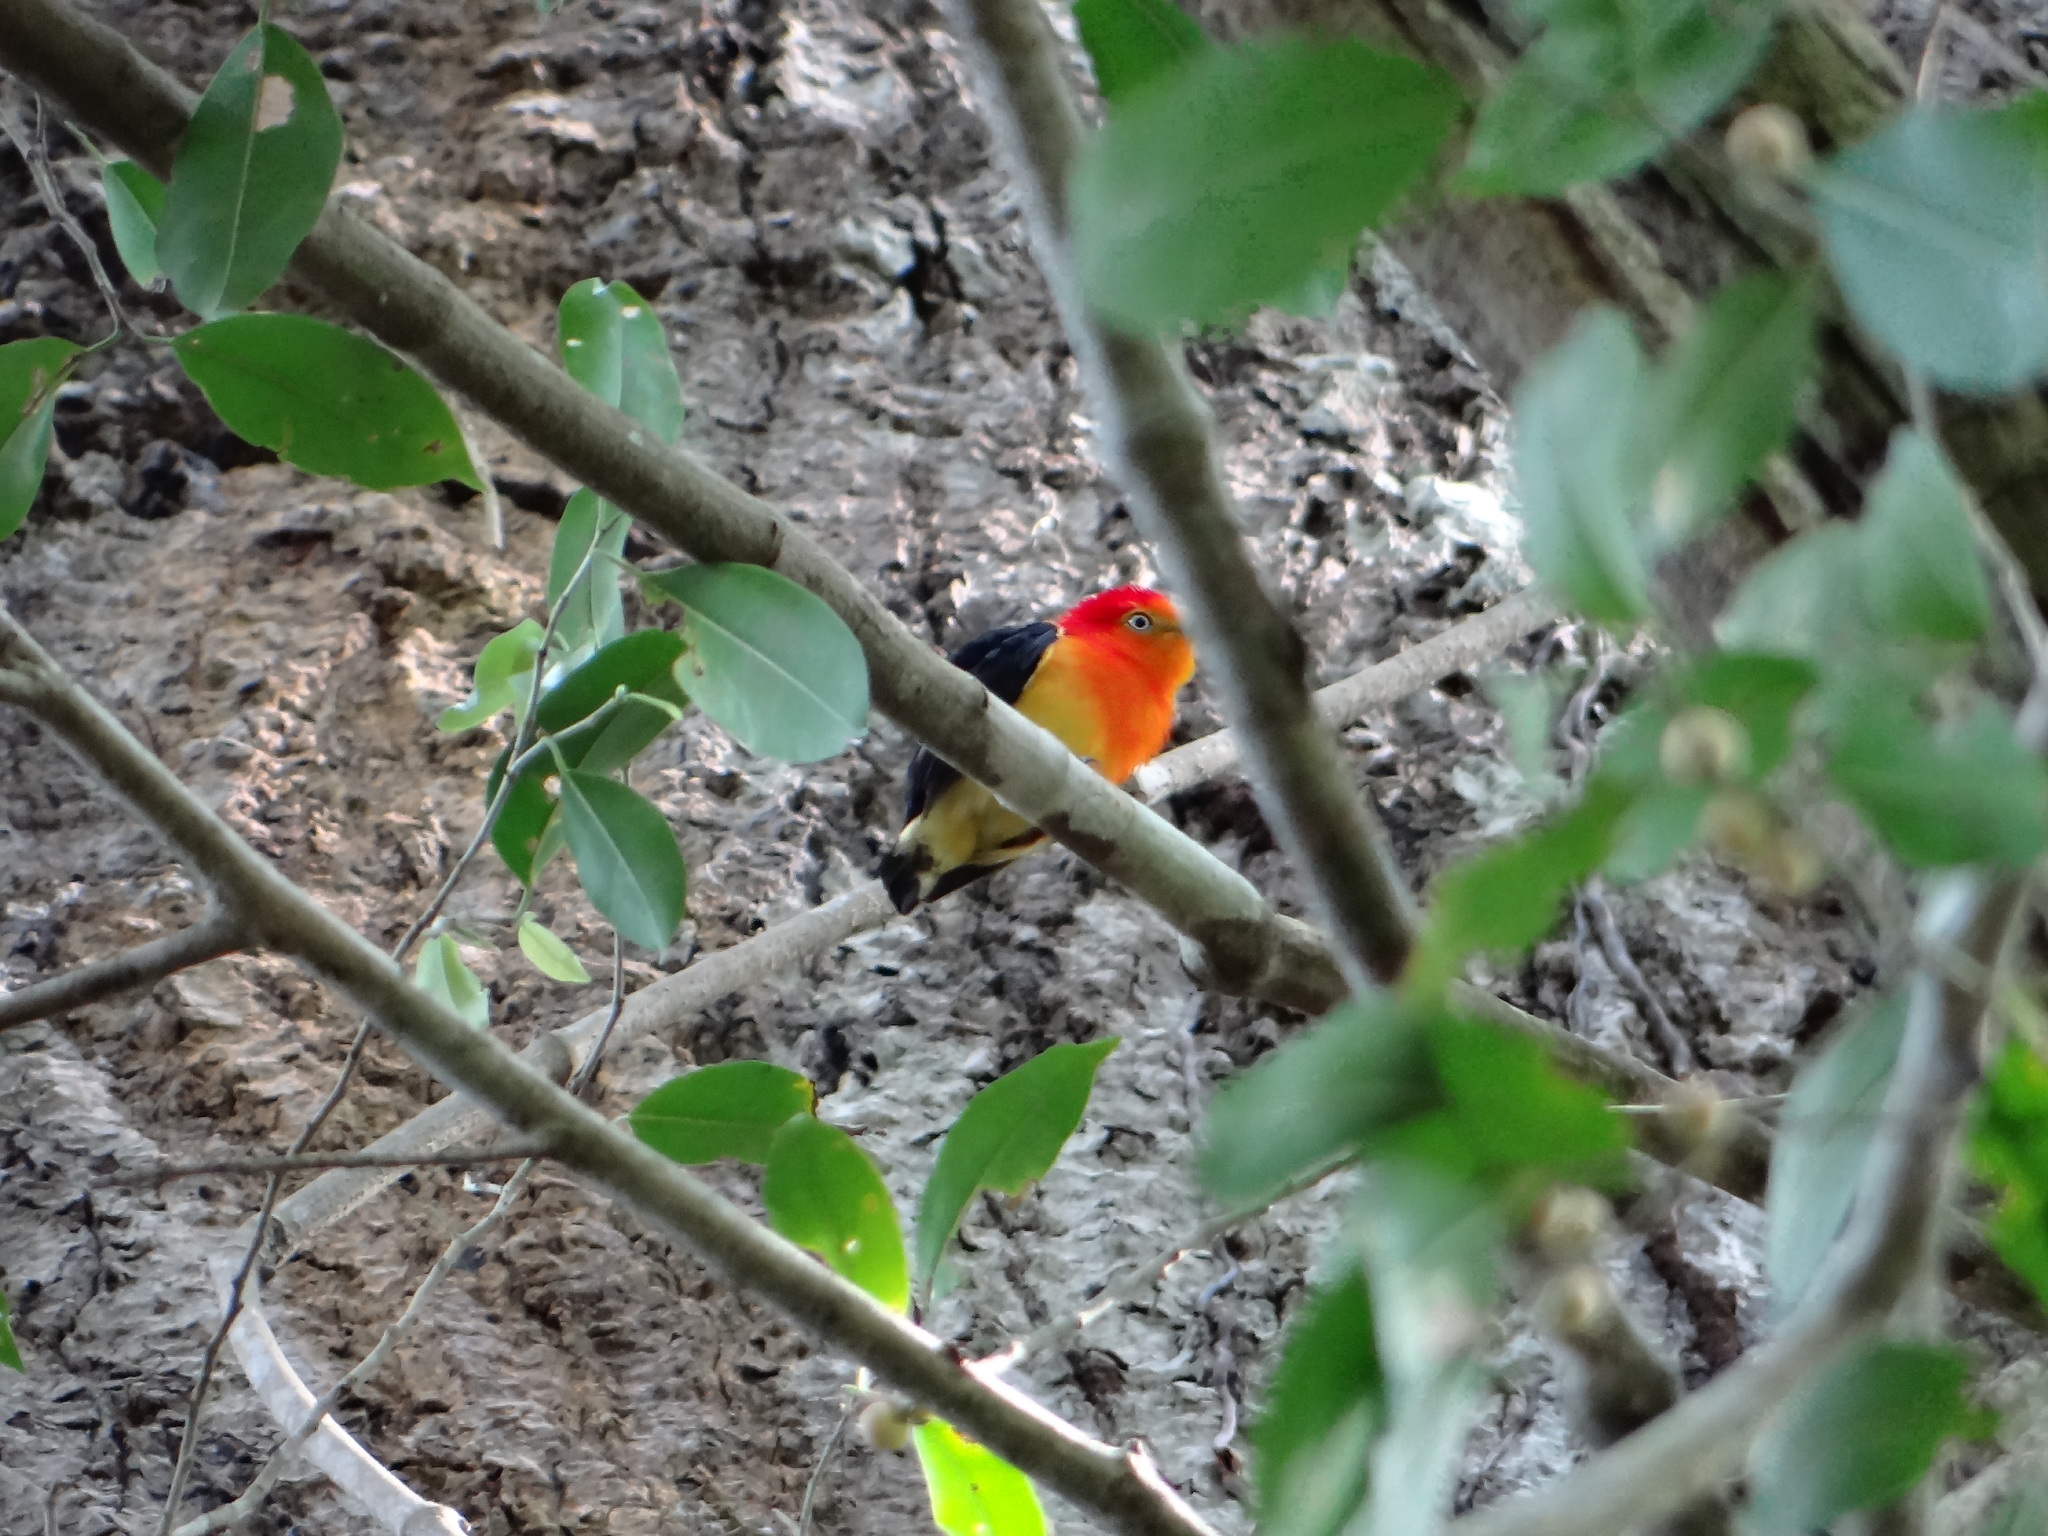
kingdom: Animalia
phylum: Chordata
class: Aves
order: Passeriformes
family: Pipridae
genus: Pipra
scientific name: Pipra fasciicauda
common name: Band-tailed manakin
